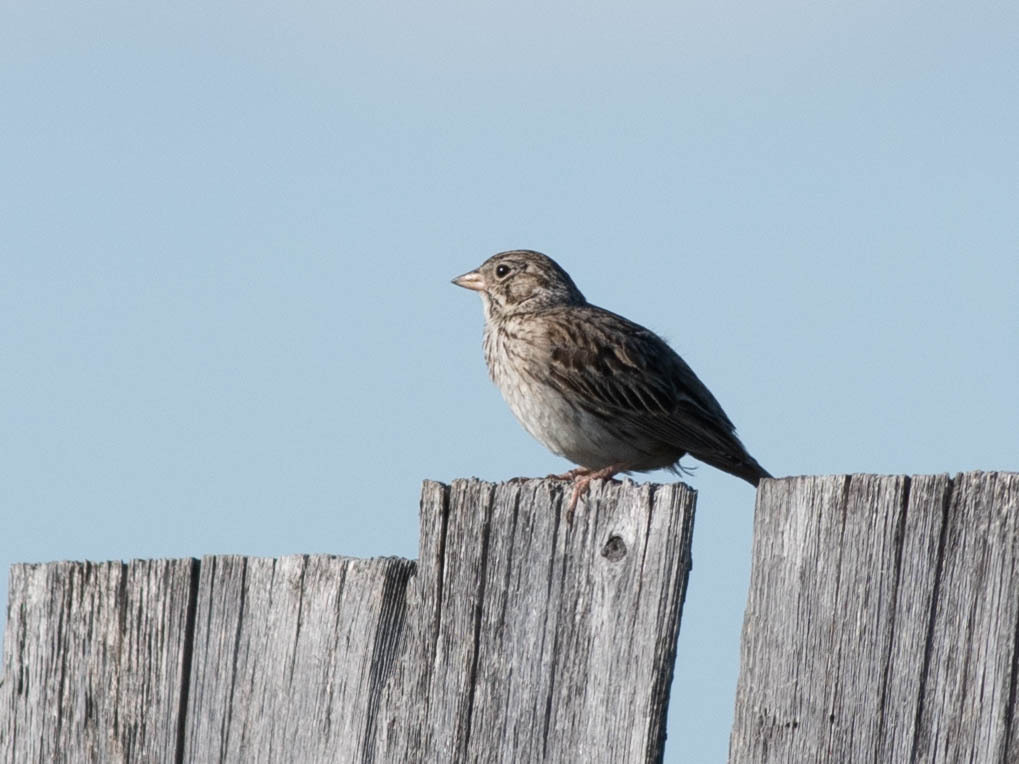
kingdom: Animalia
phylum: Chordata
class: Aves
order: Passeriformes
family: Passerellidae
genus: Pooecetes
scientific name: Pooecetes gramineus
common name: Vesper sparrow
